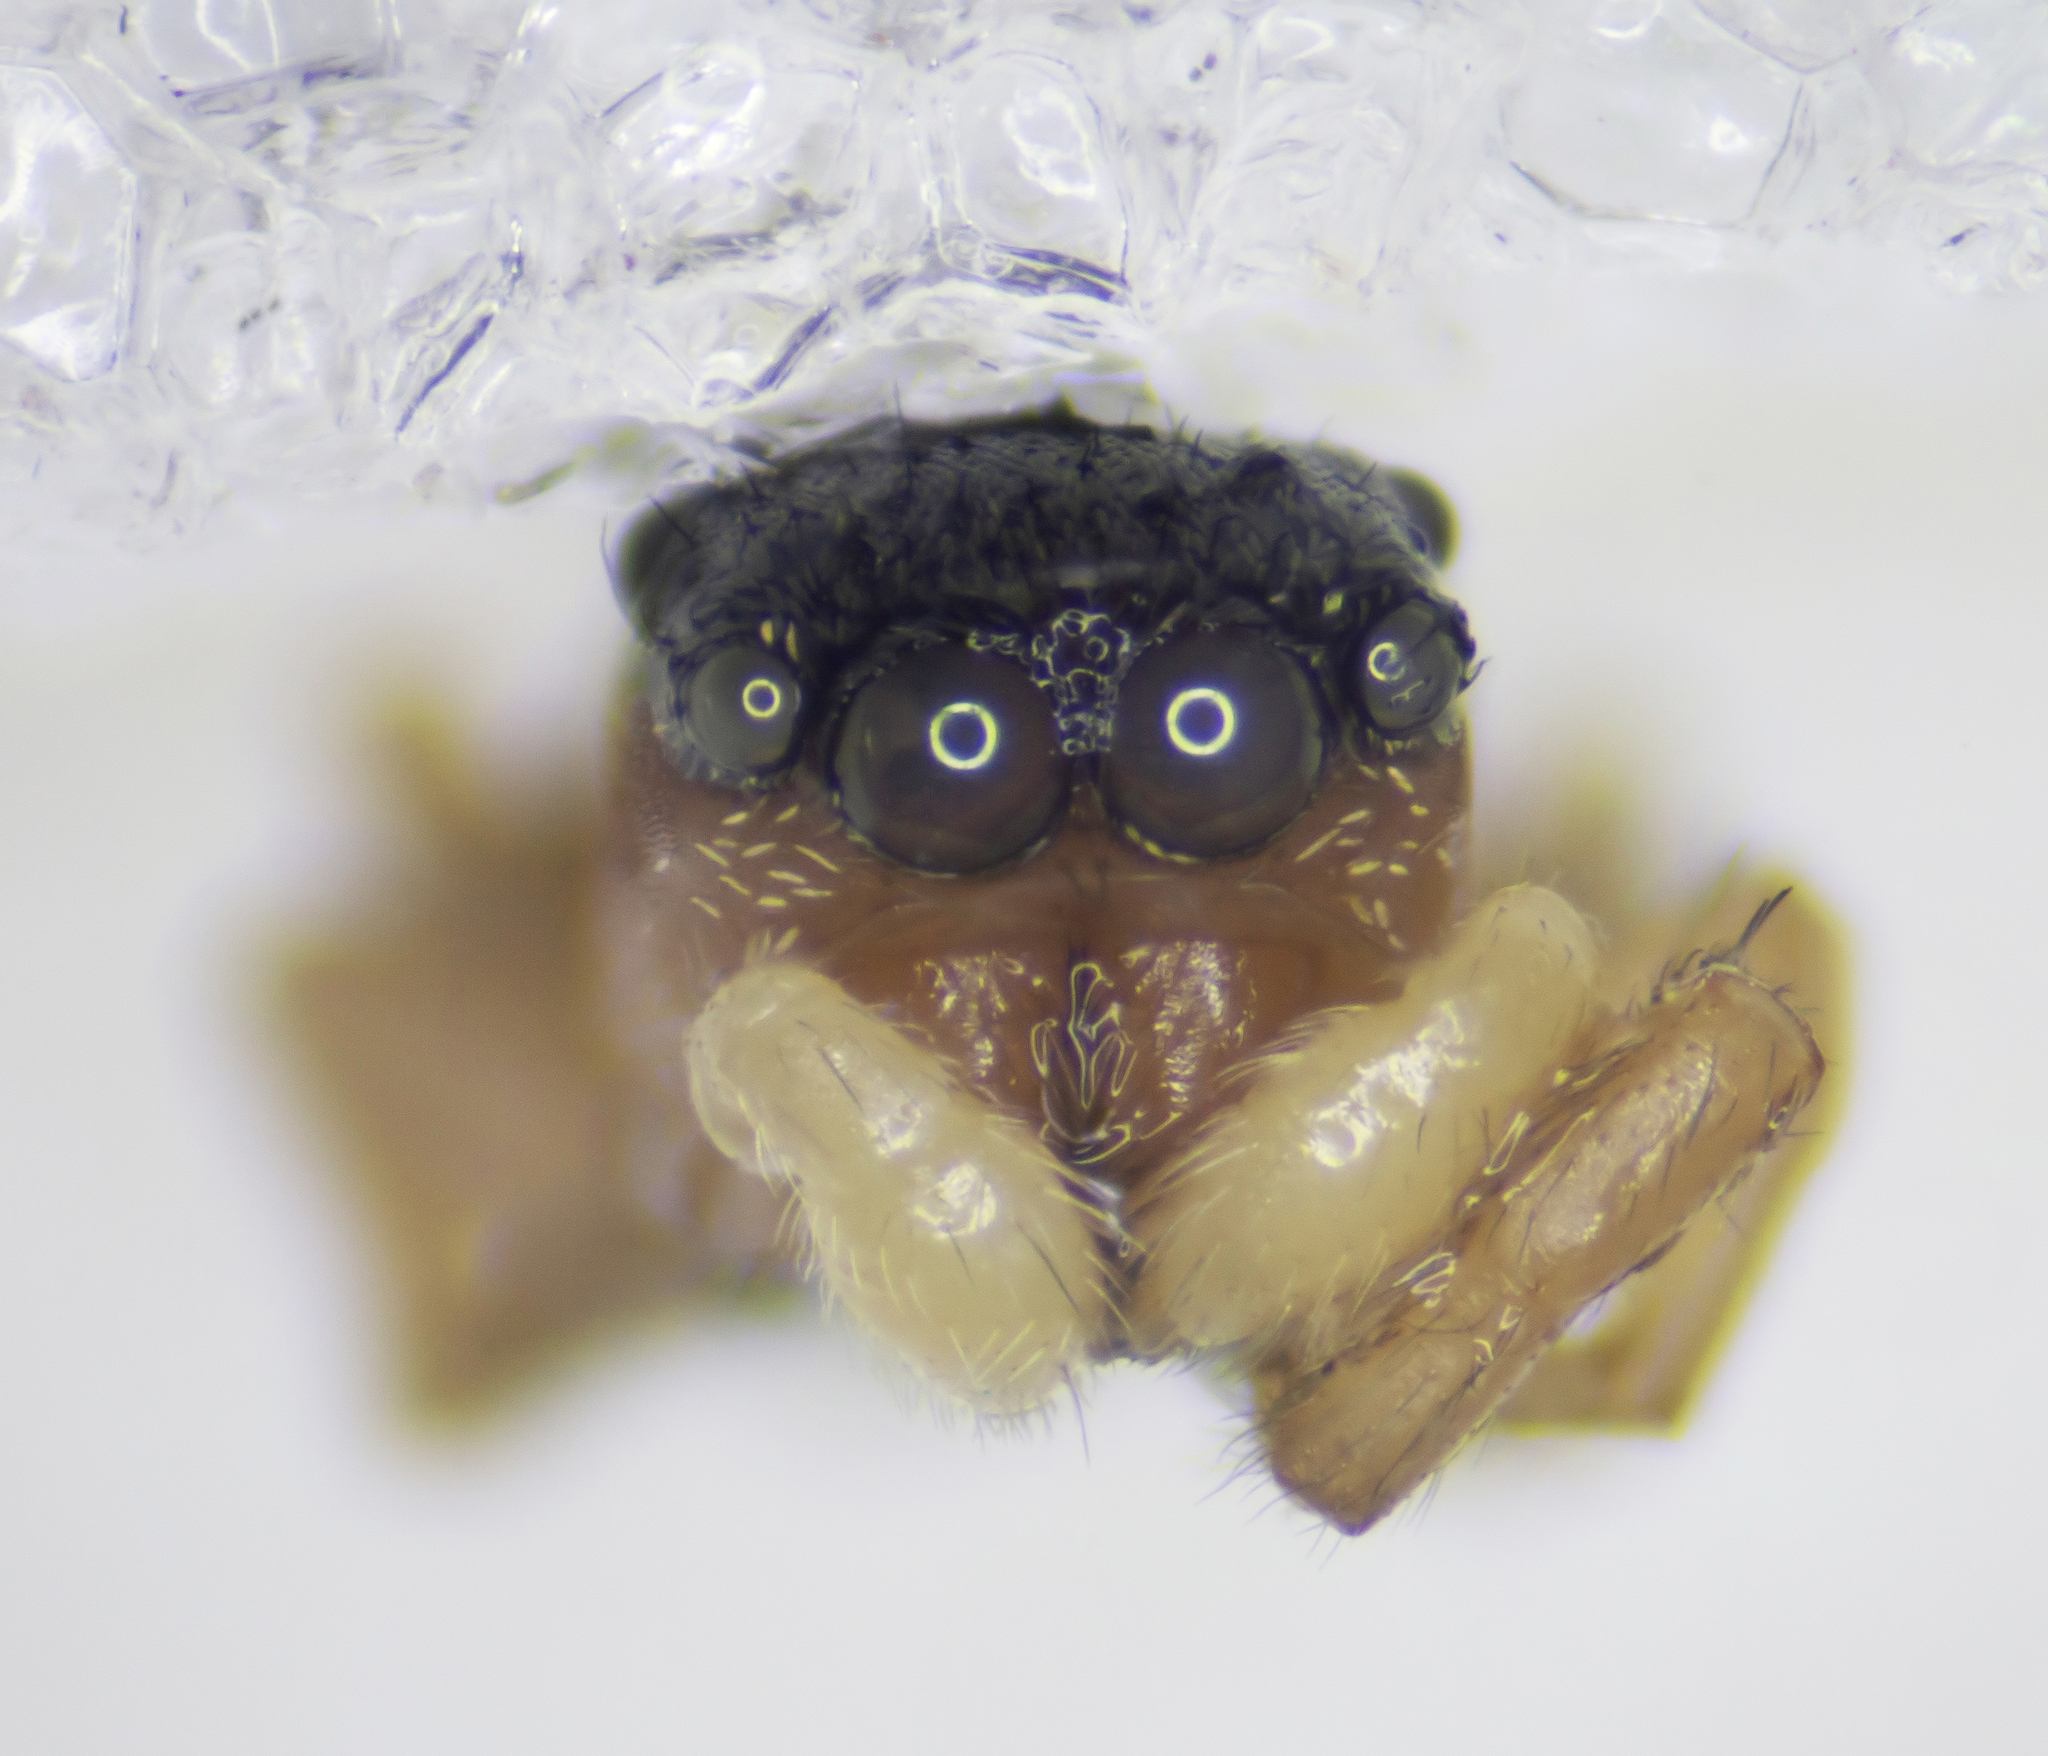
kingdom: Animalia
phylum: Arthropoda
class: Arachnida
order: Araneae
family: Salticidae
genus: Heliophanus
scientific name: Heliophanus tribulosus
